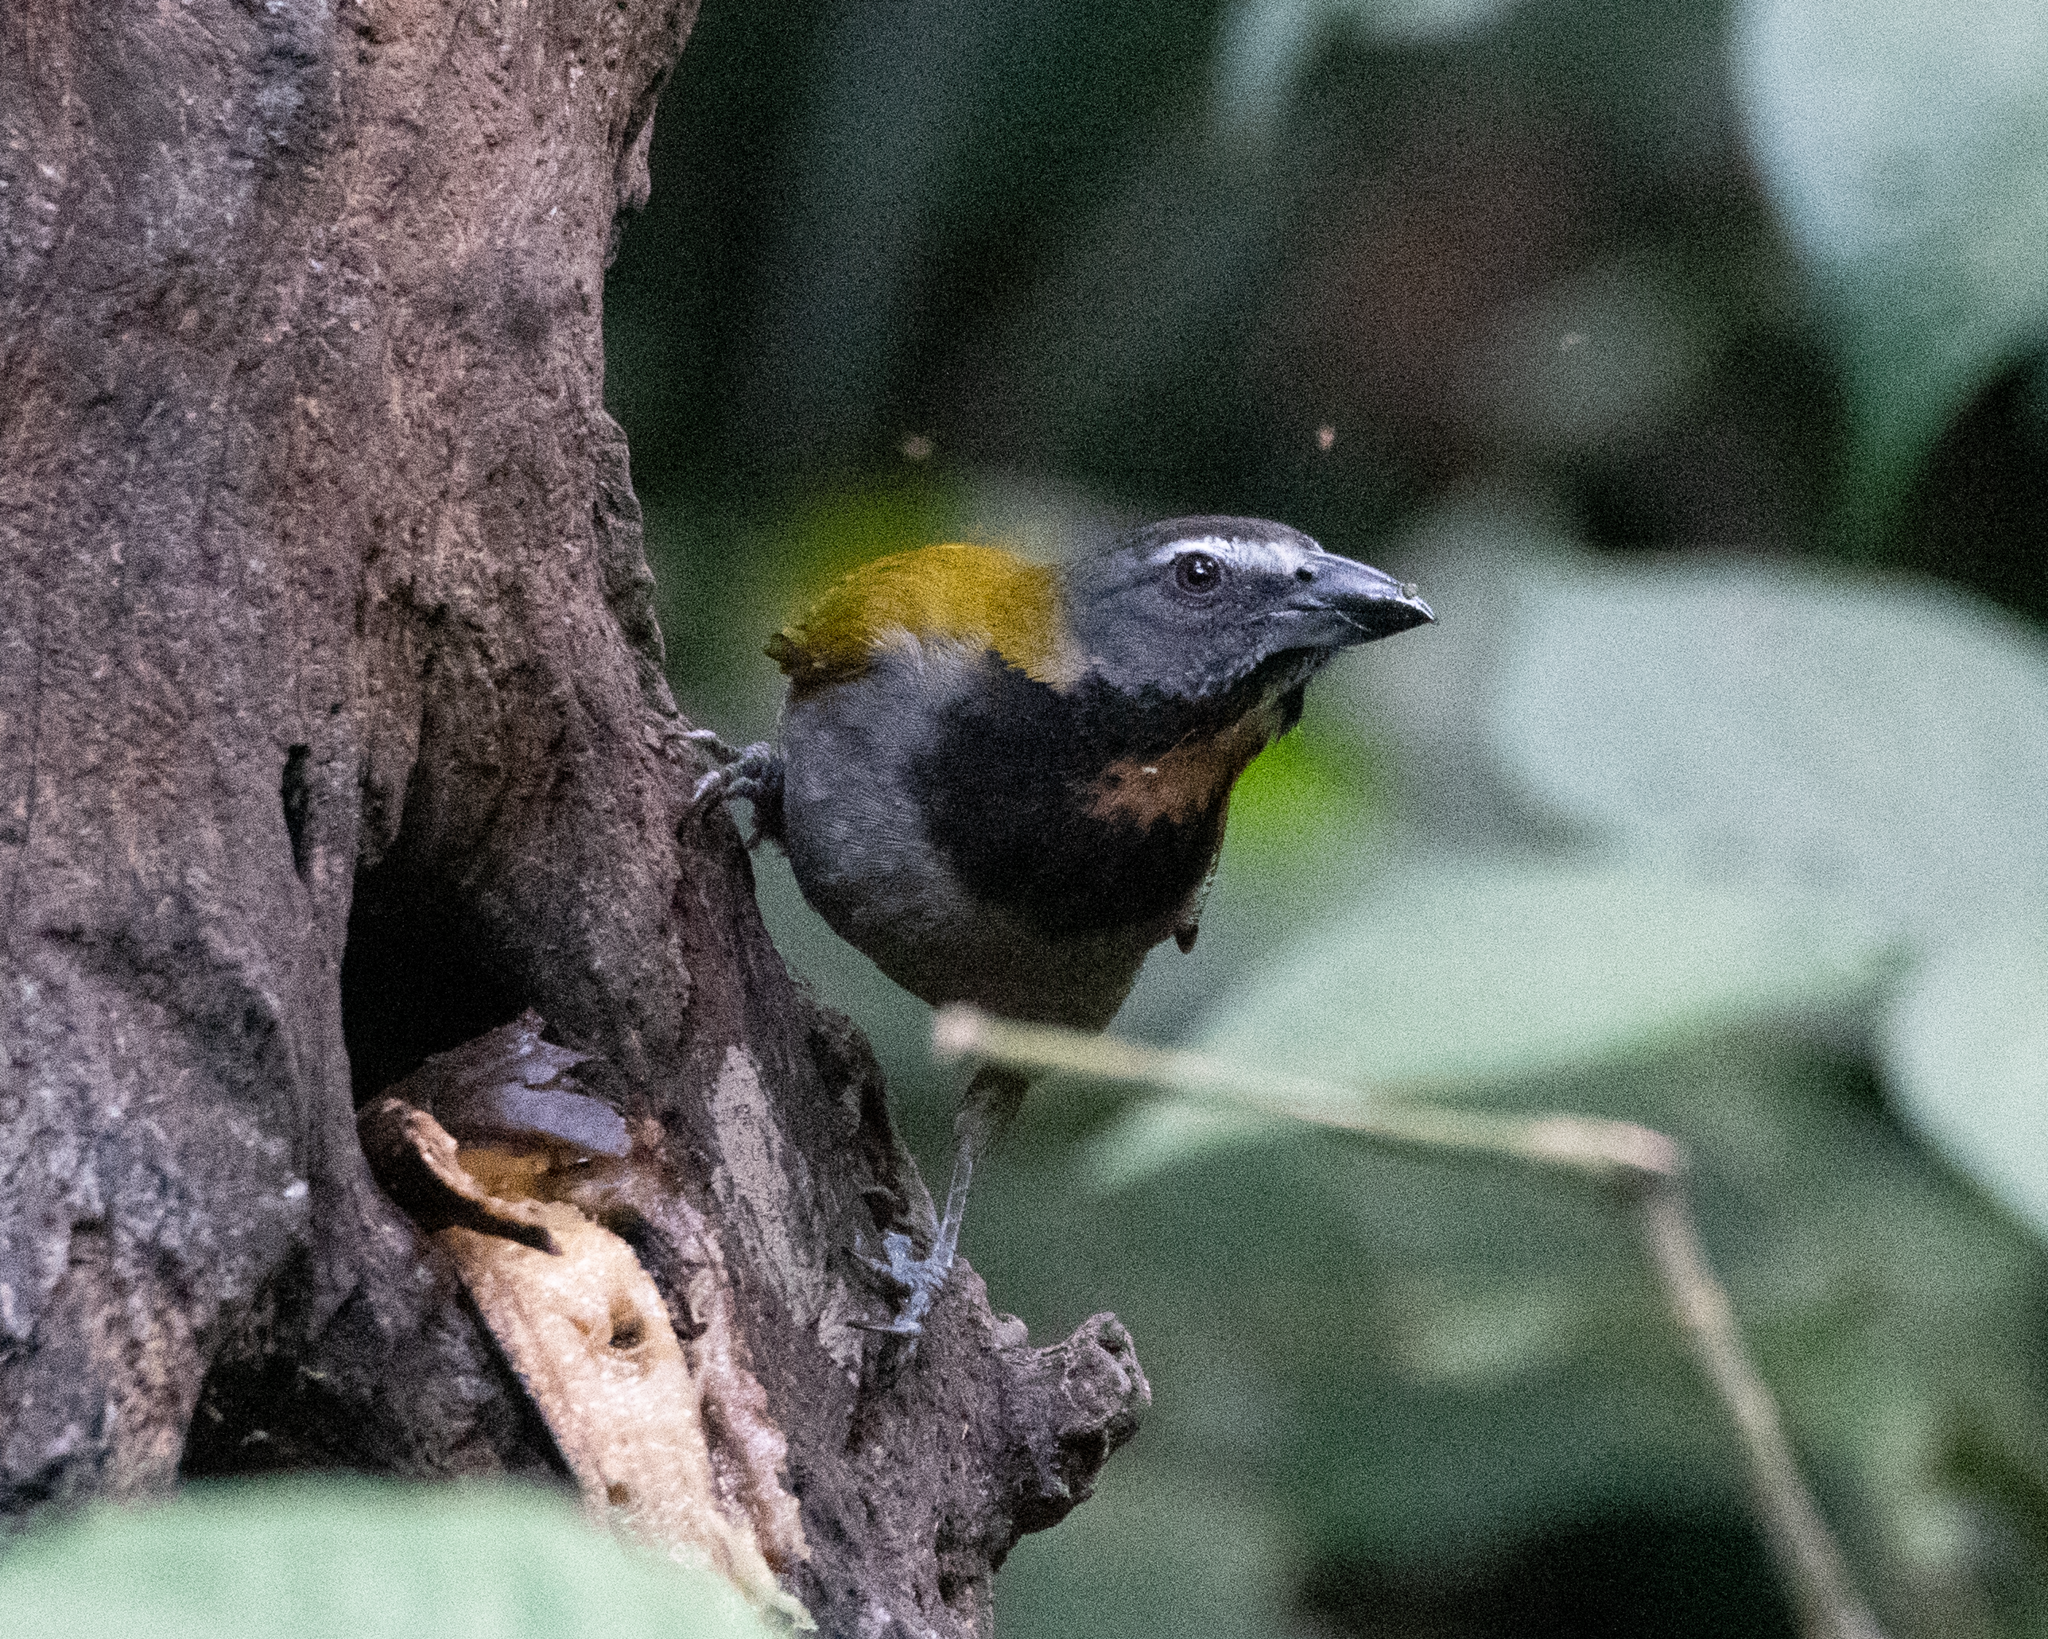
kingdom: Animalia
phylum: Chordata
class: Aves
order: Passeriformes
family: Thraupidae
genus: Saltator
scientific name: Saltator maximus
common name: Buff-throated saltator
